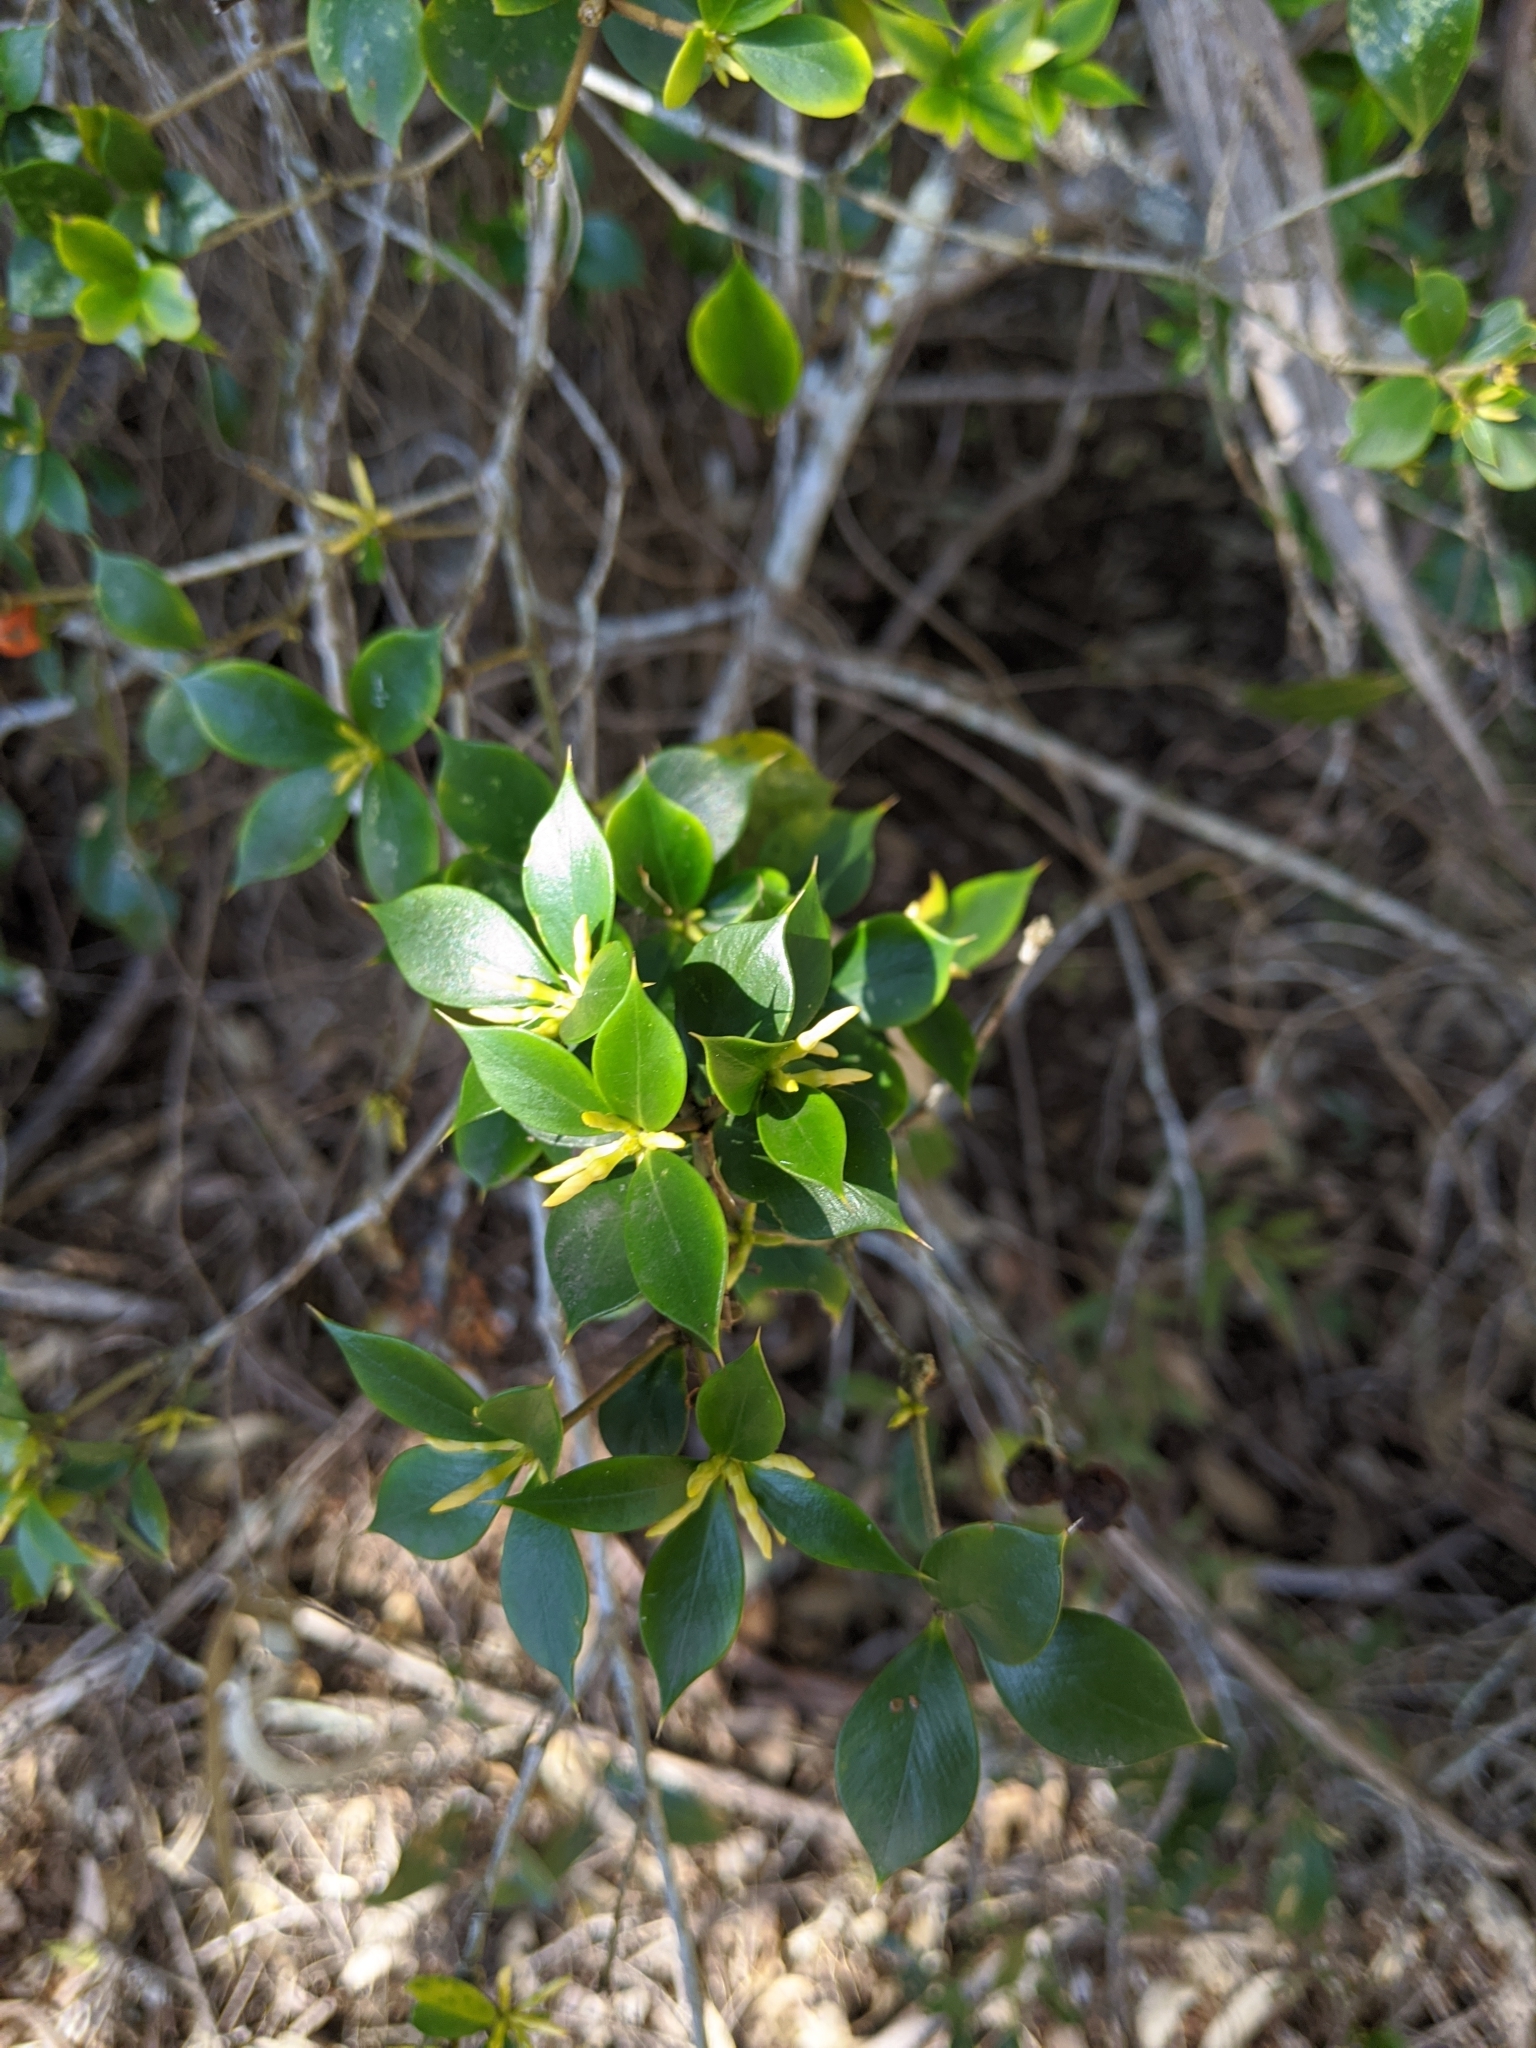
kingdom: Plantae
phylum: Tracheophyta
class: Magnoliopsida
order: Gentianales
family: Apocynaceae
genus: Alyxia
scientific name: Alyxia ruscifolia
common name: Chainfruit
